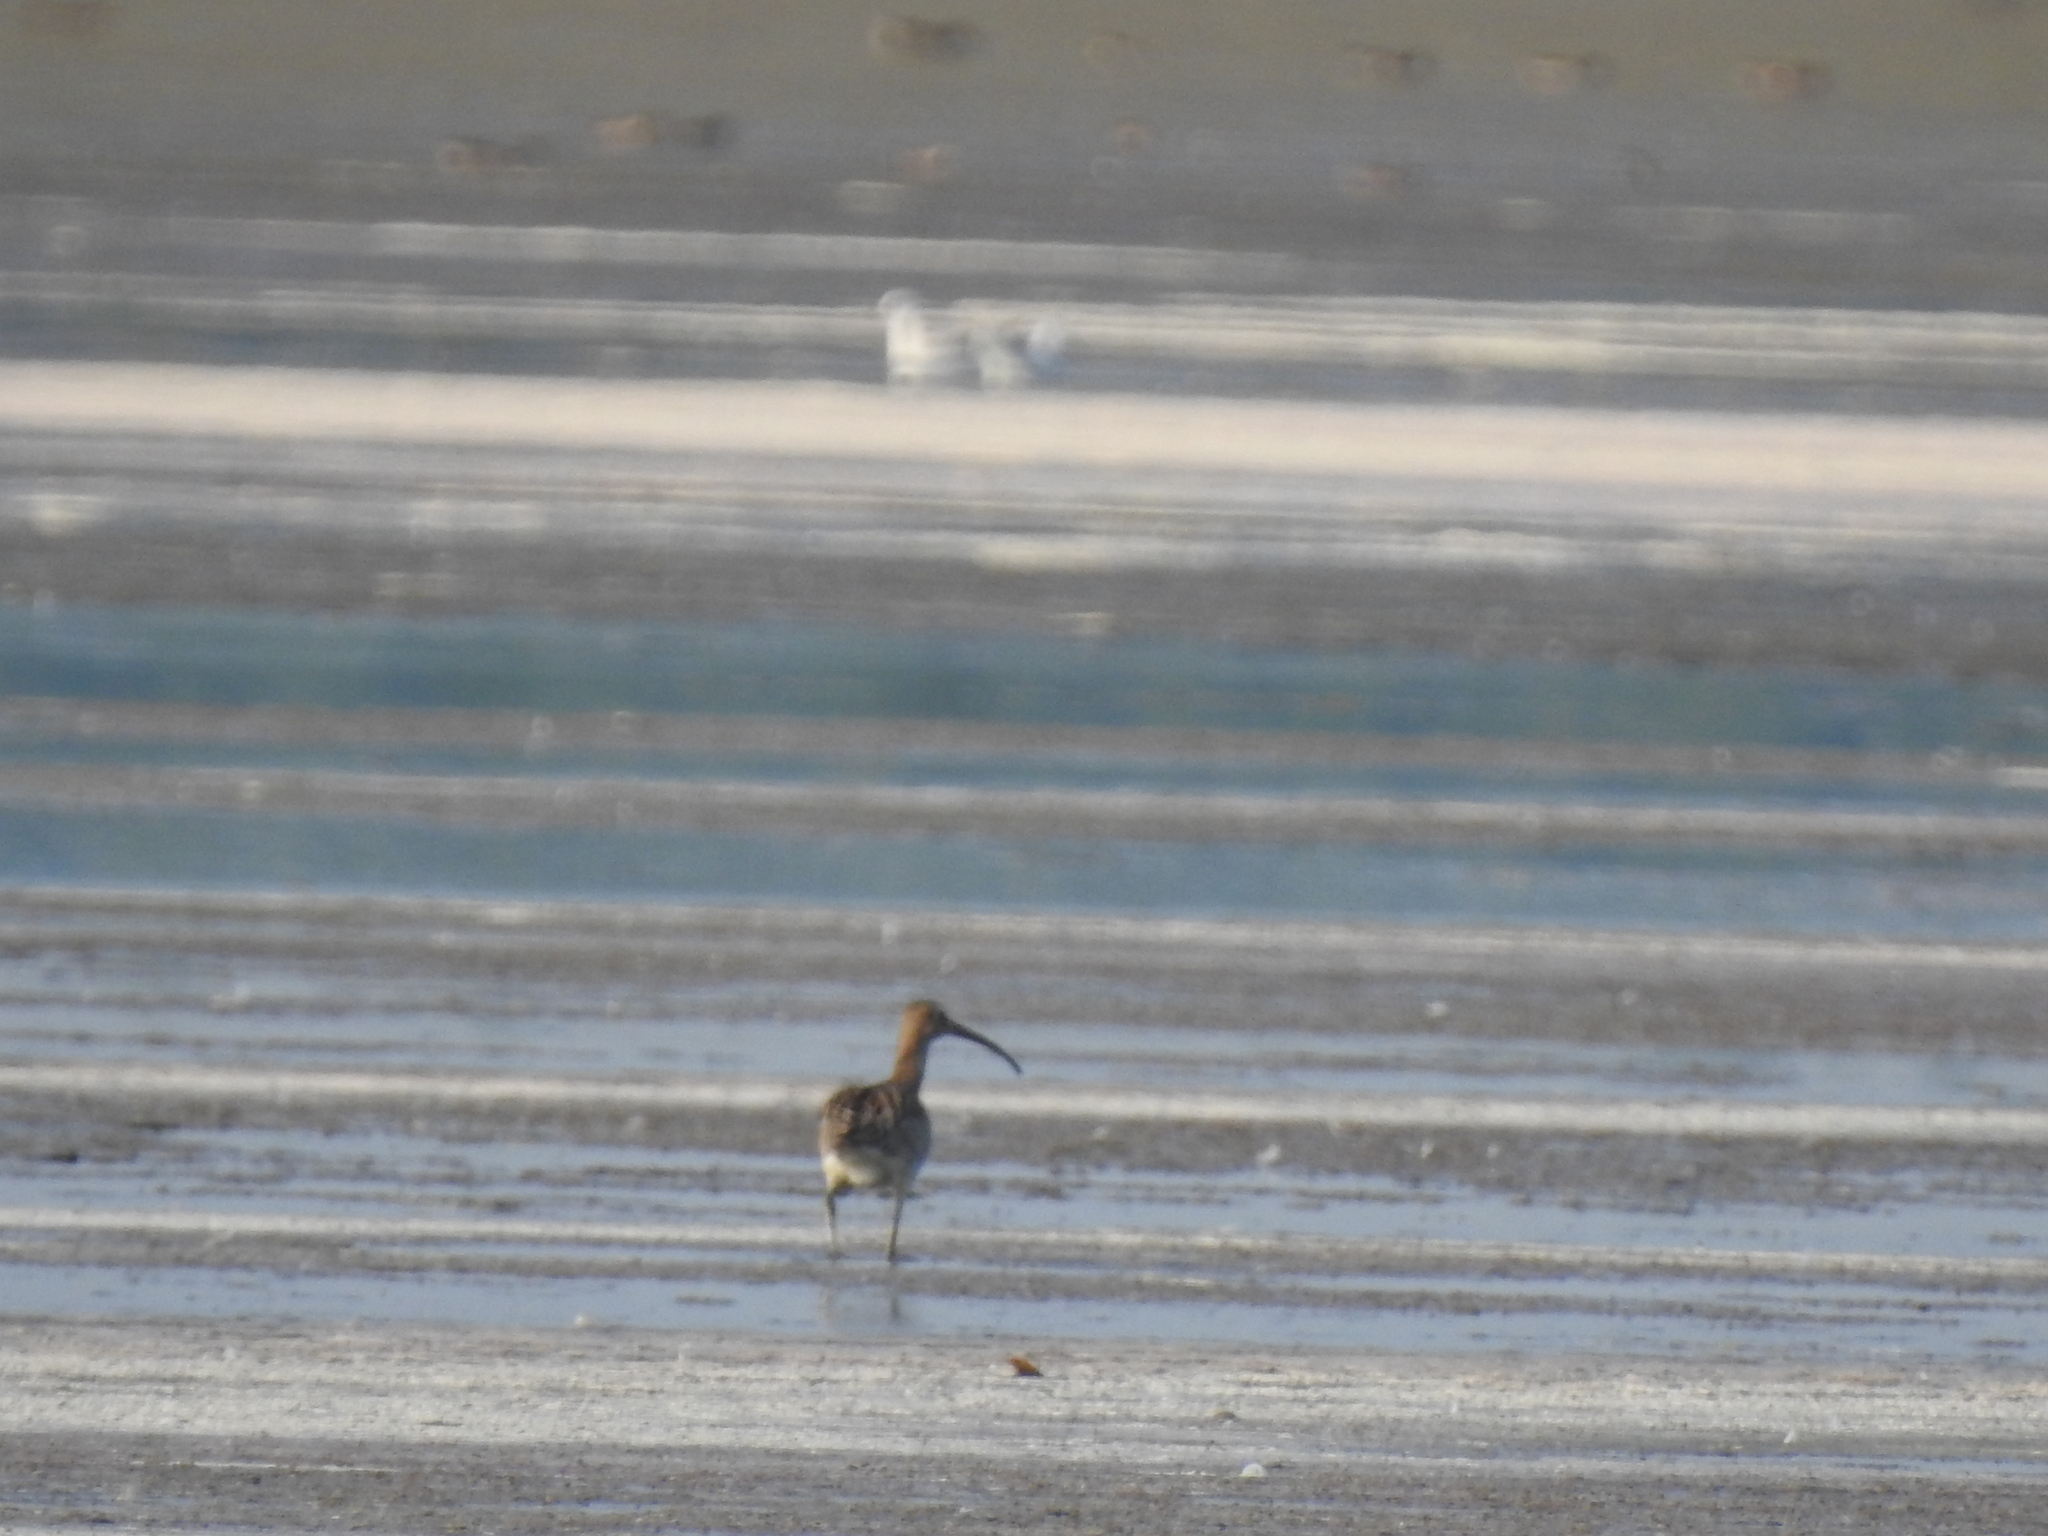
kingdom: Animalia
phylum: Chordata
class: Aves
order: Charadriiformes
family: Scolopacidae
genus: Numenius
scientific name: Numenius arquata
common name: Eurasian curlew
